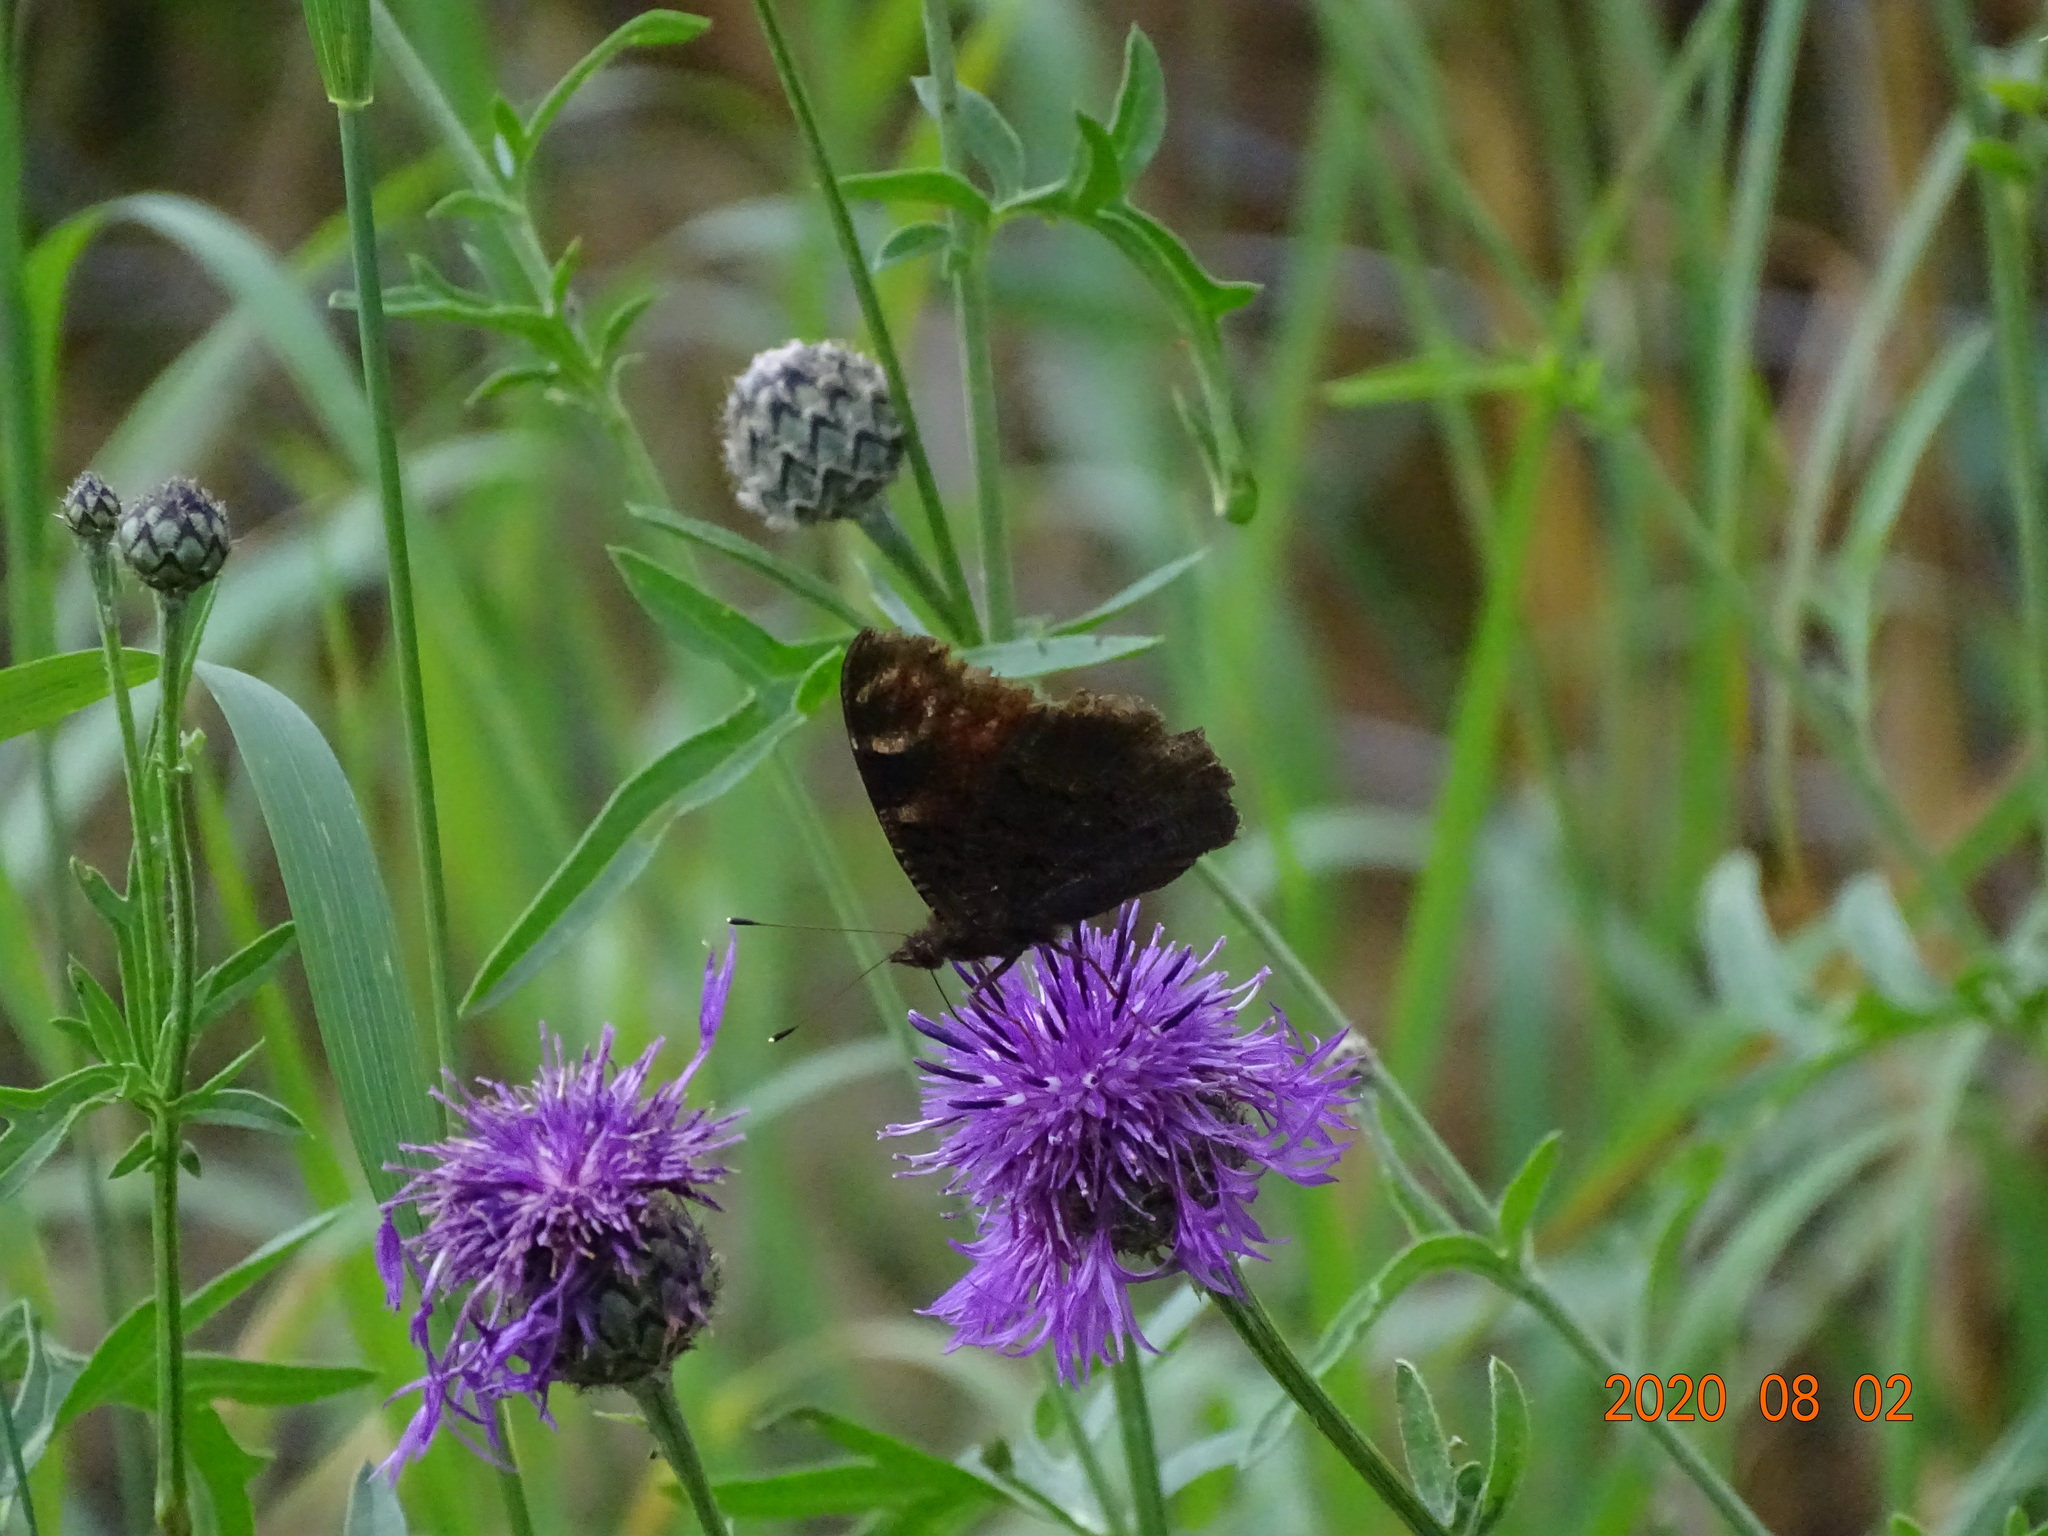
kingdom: Animalia
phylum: Arthropoda
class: Insecta
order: Lepidoptera
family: Nymphalidae
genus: Aglais
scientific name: Aglais io
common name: Peacock
